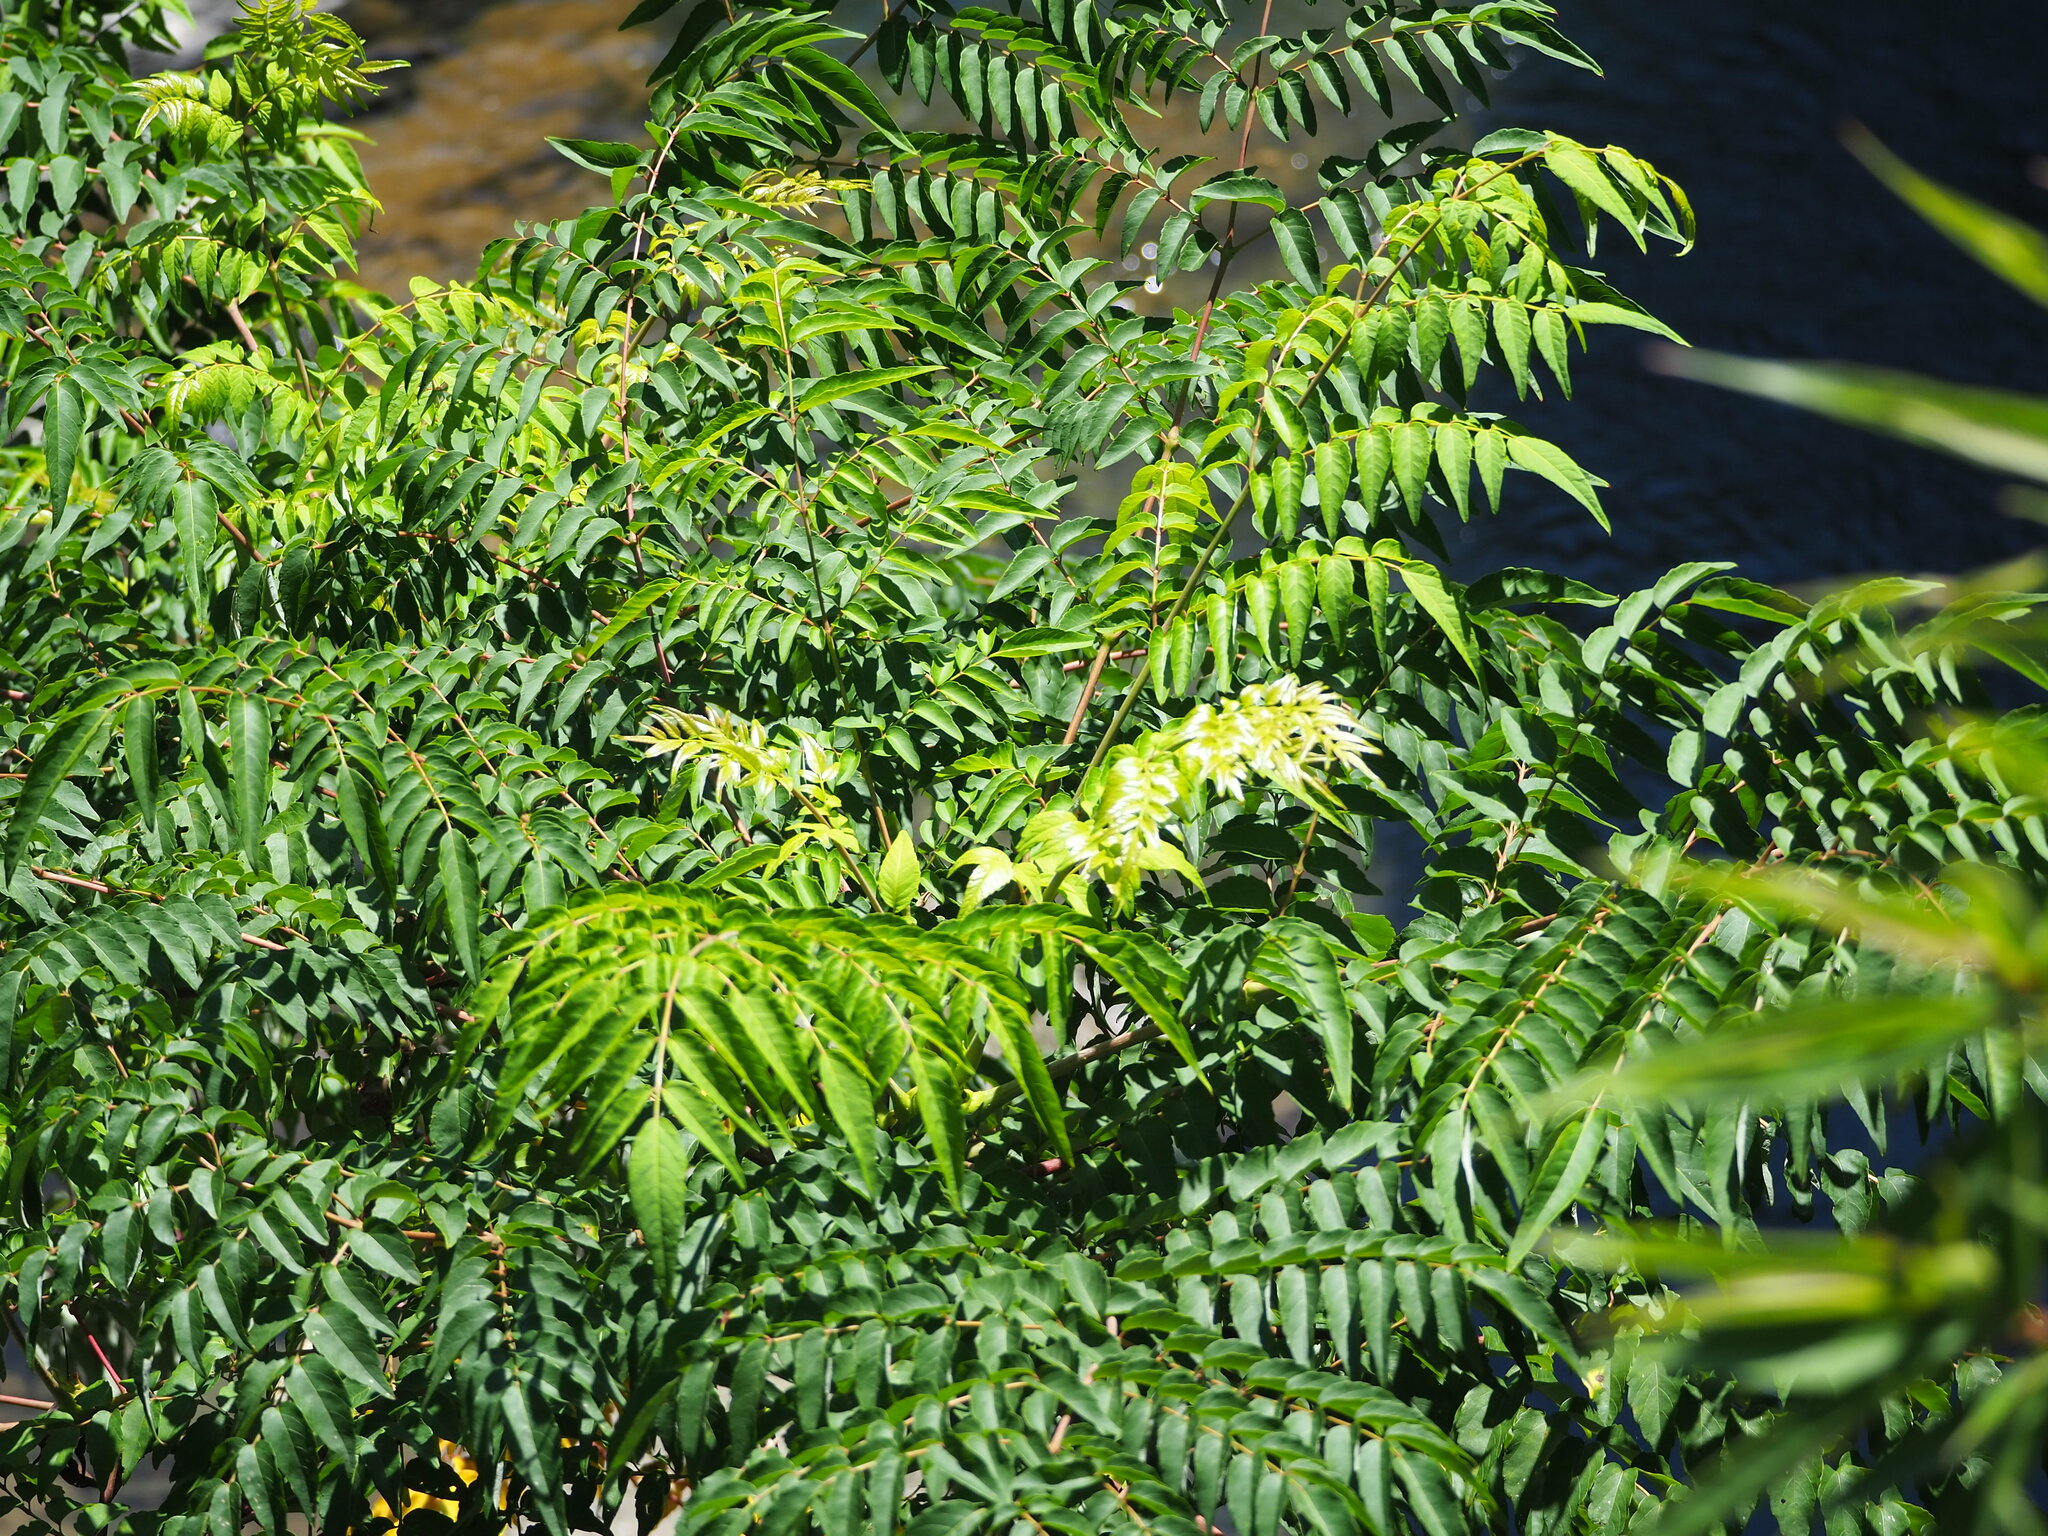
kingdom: Plantae
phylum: Tracheophyta
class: Magnoliopsida
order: Apiales
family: Araliaceae
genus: Aralia
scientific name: Aralia bipinnata
